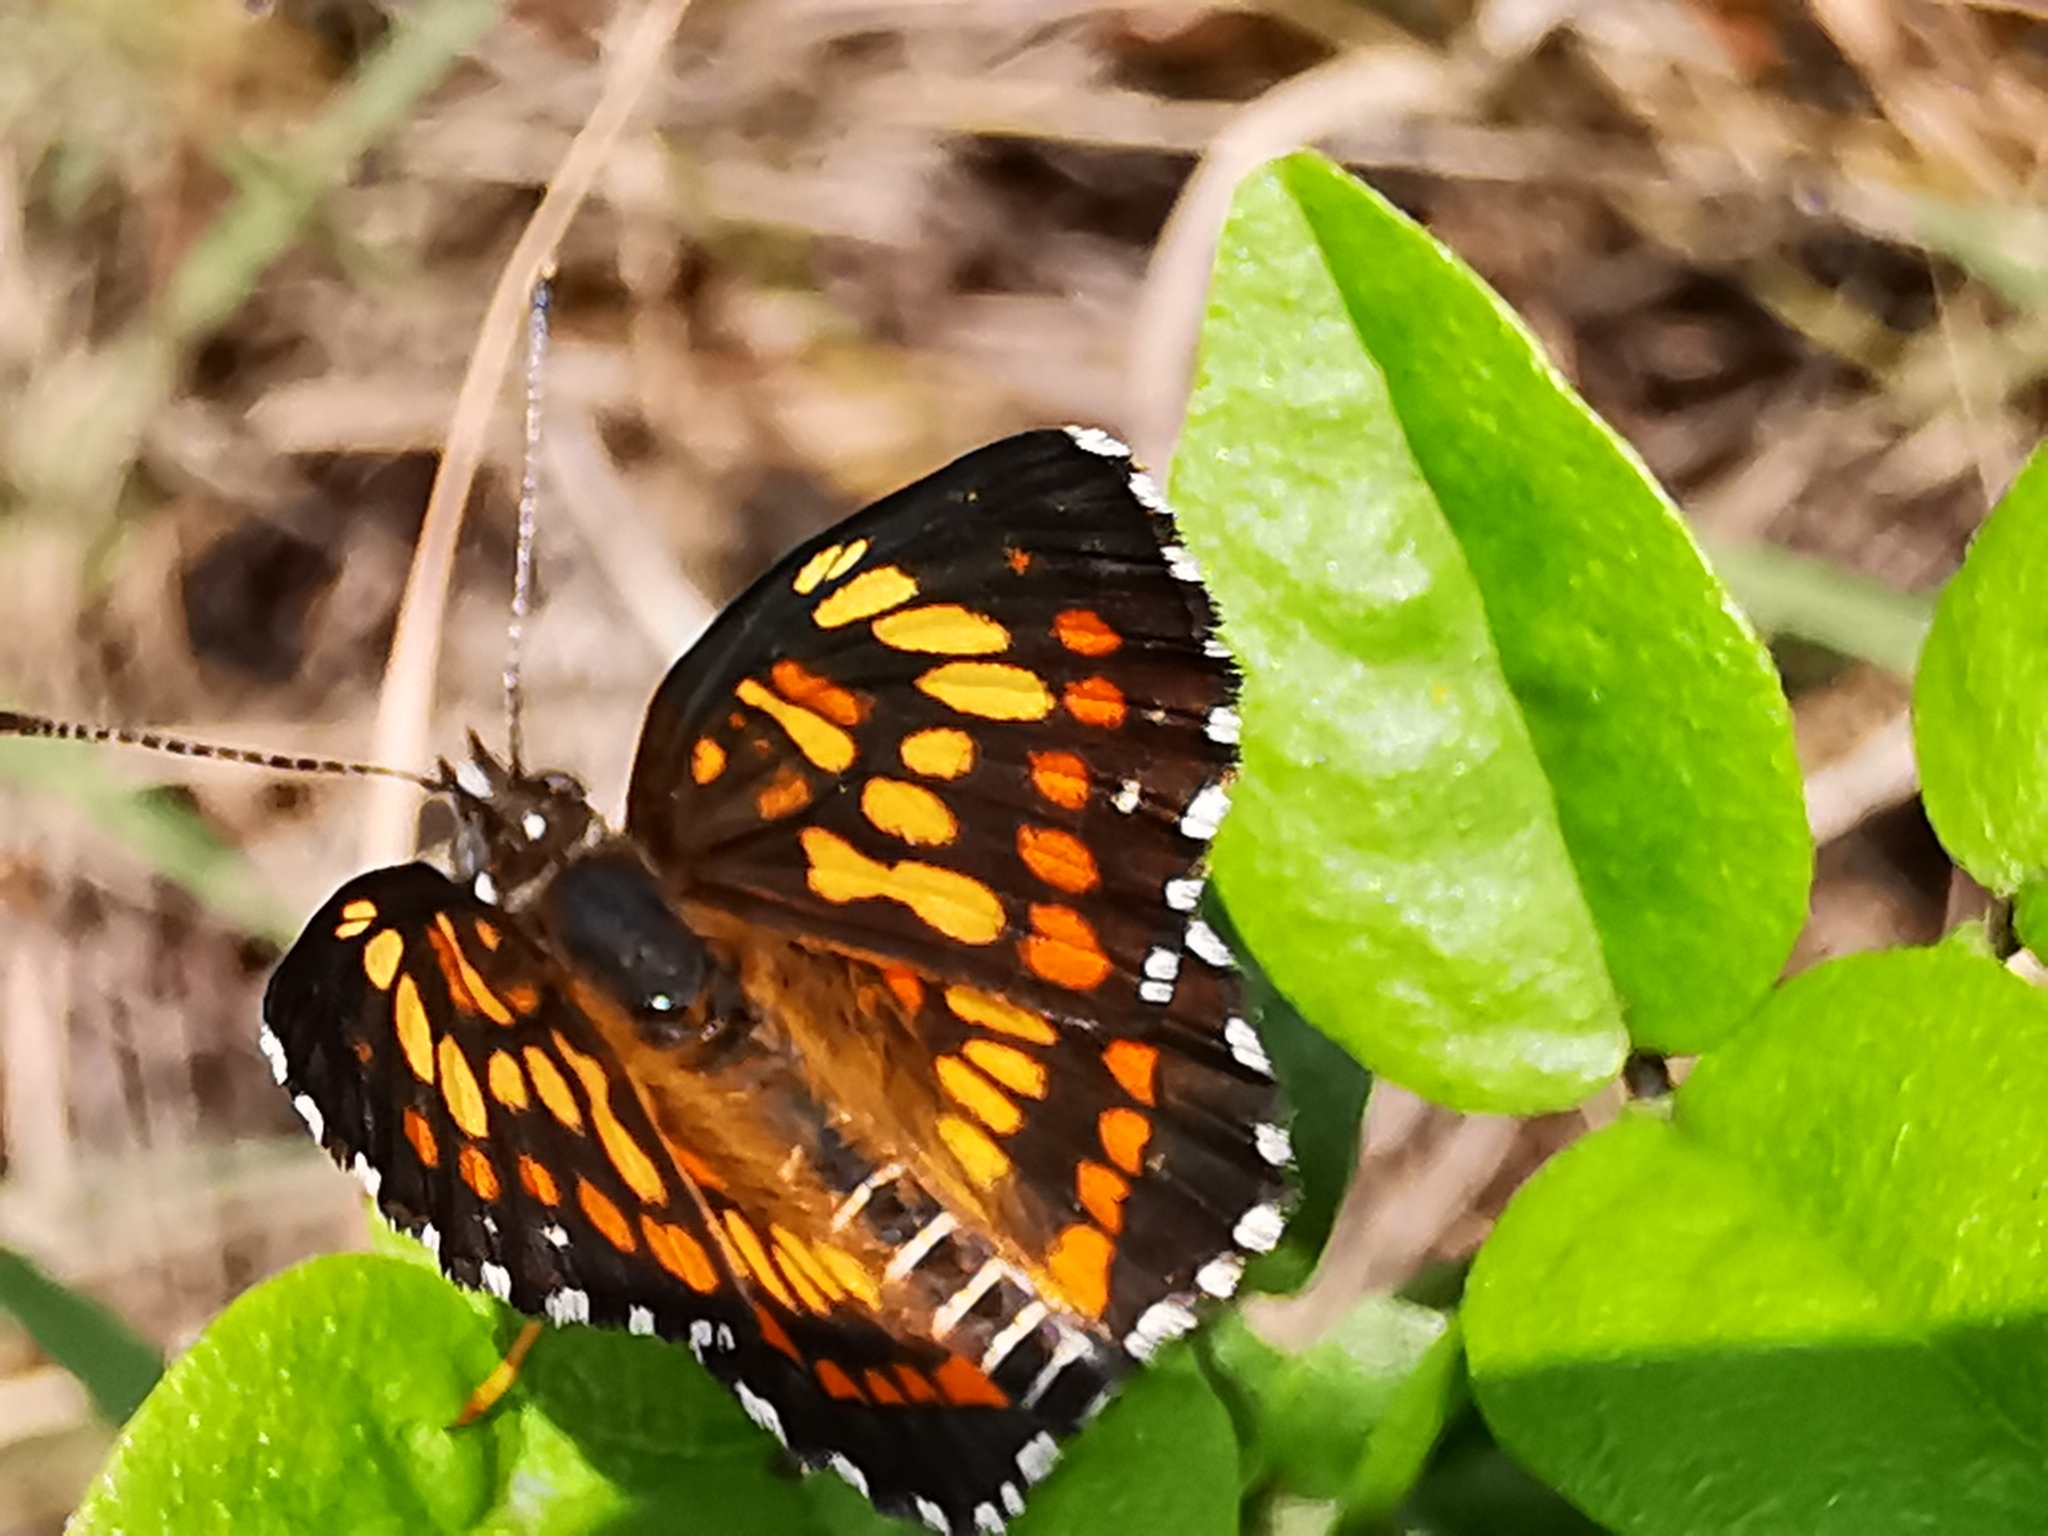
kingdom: Animalia
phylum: Arthropoda
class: Insecta
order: Lepidoptera
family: Nymphalidae
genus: Thessalia
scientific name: Thessalia theona
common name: Nymphalid moth
